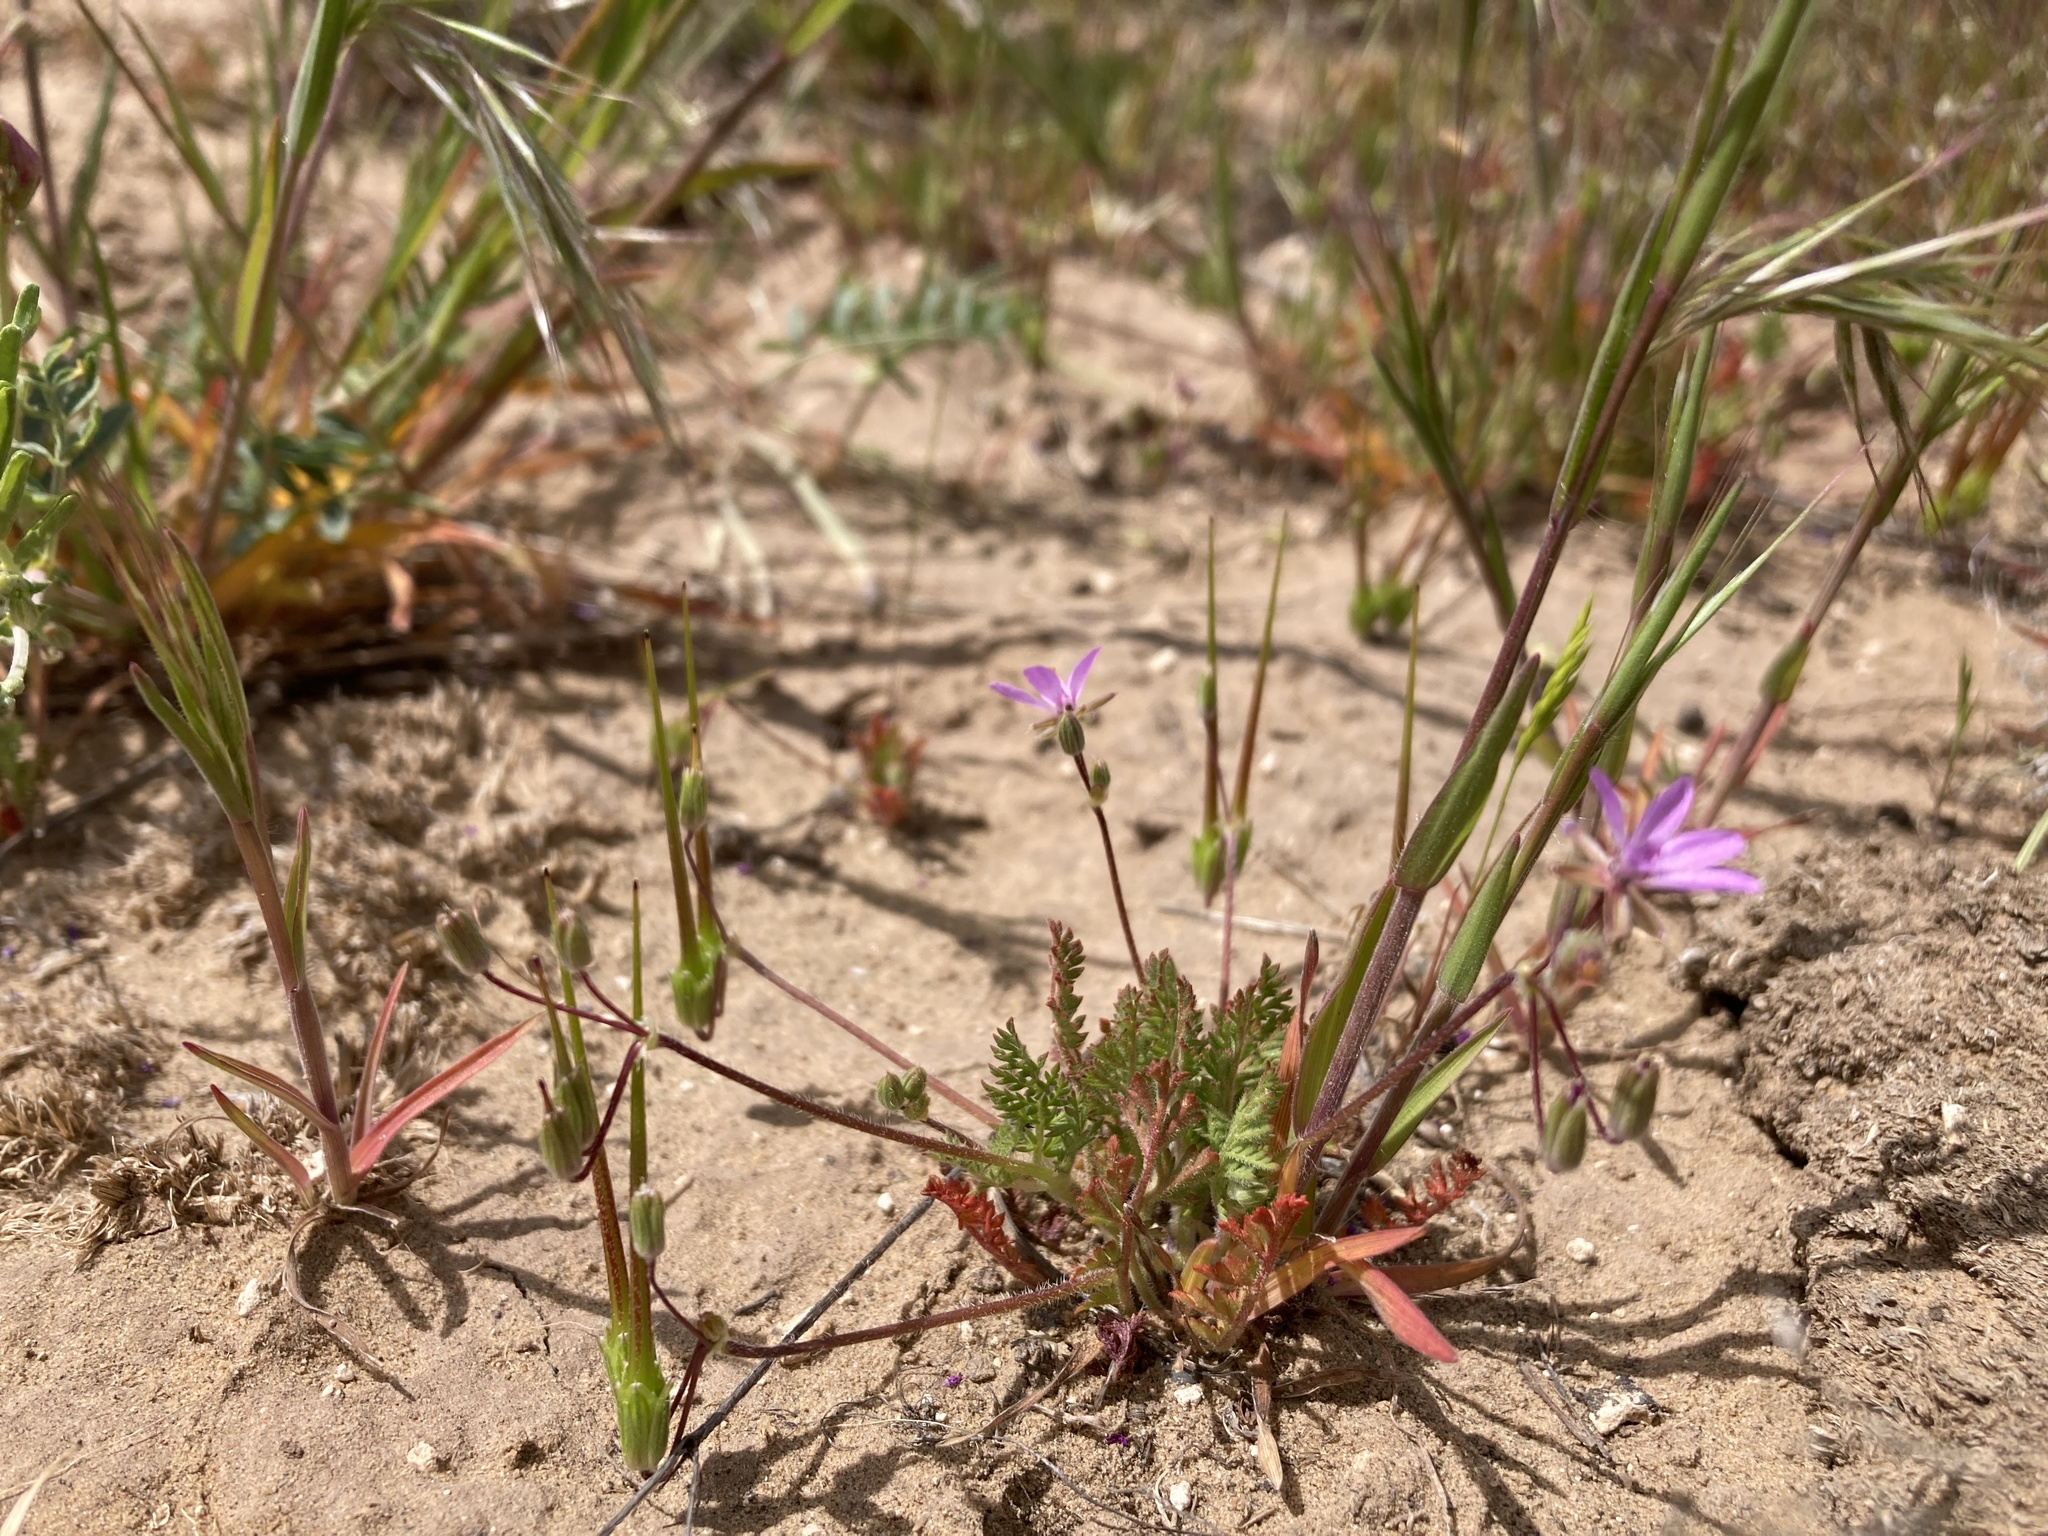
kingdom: Plantae
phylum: Tracheophyta
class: Magnoliopsida
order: Geraniales
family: Geraniaceae
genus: Erodium
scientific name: Erodium cicutarium
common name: Common stork's-bill
